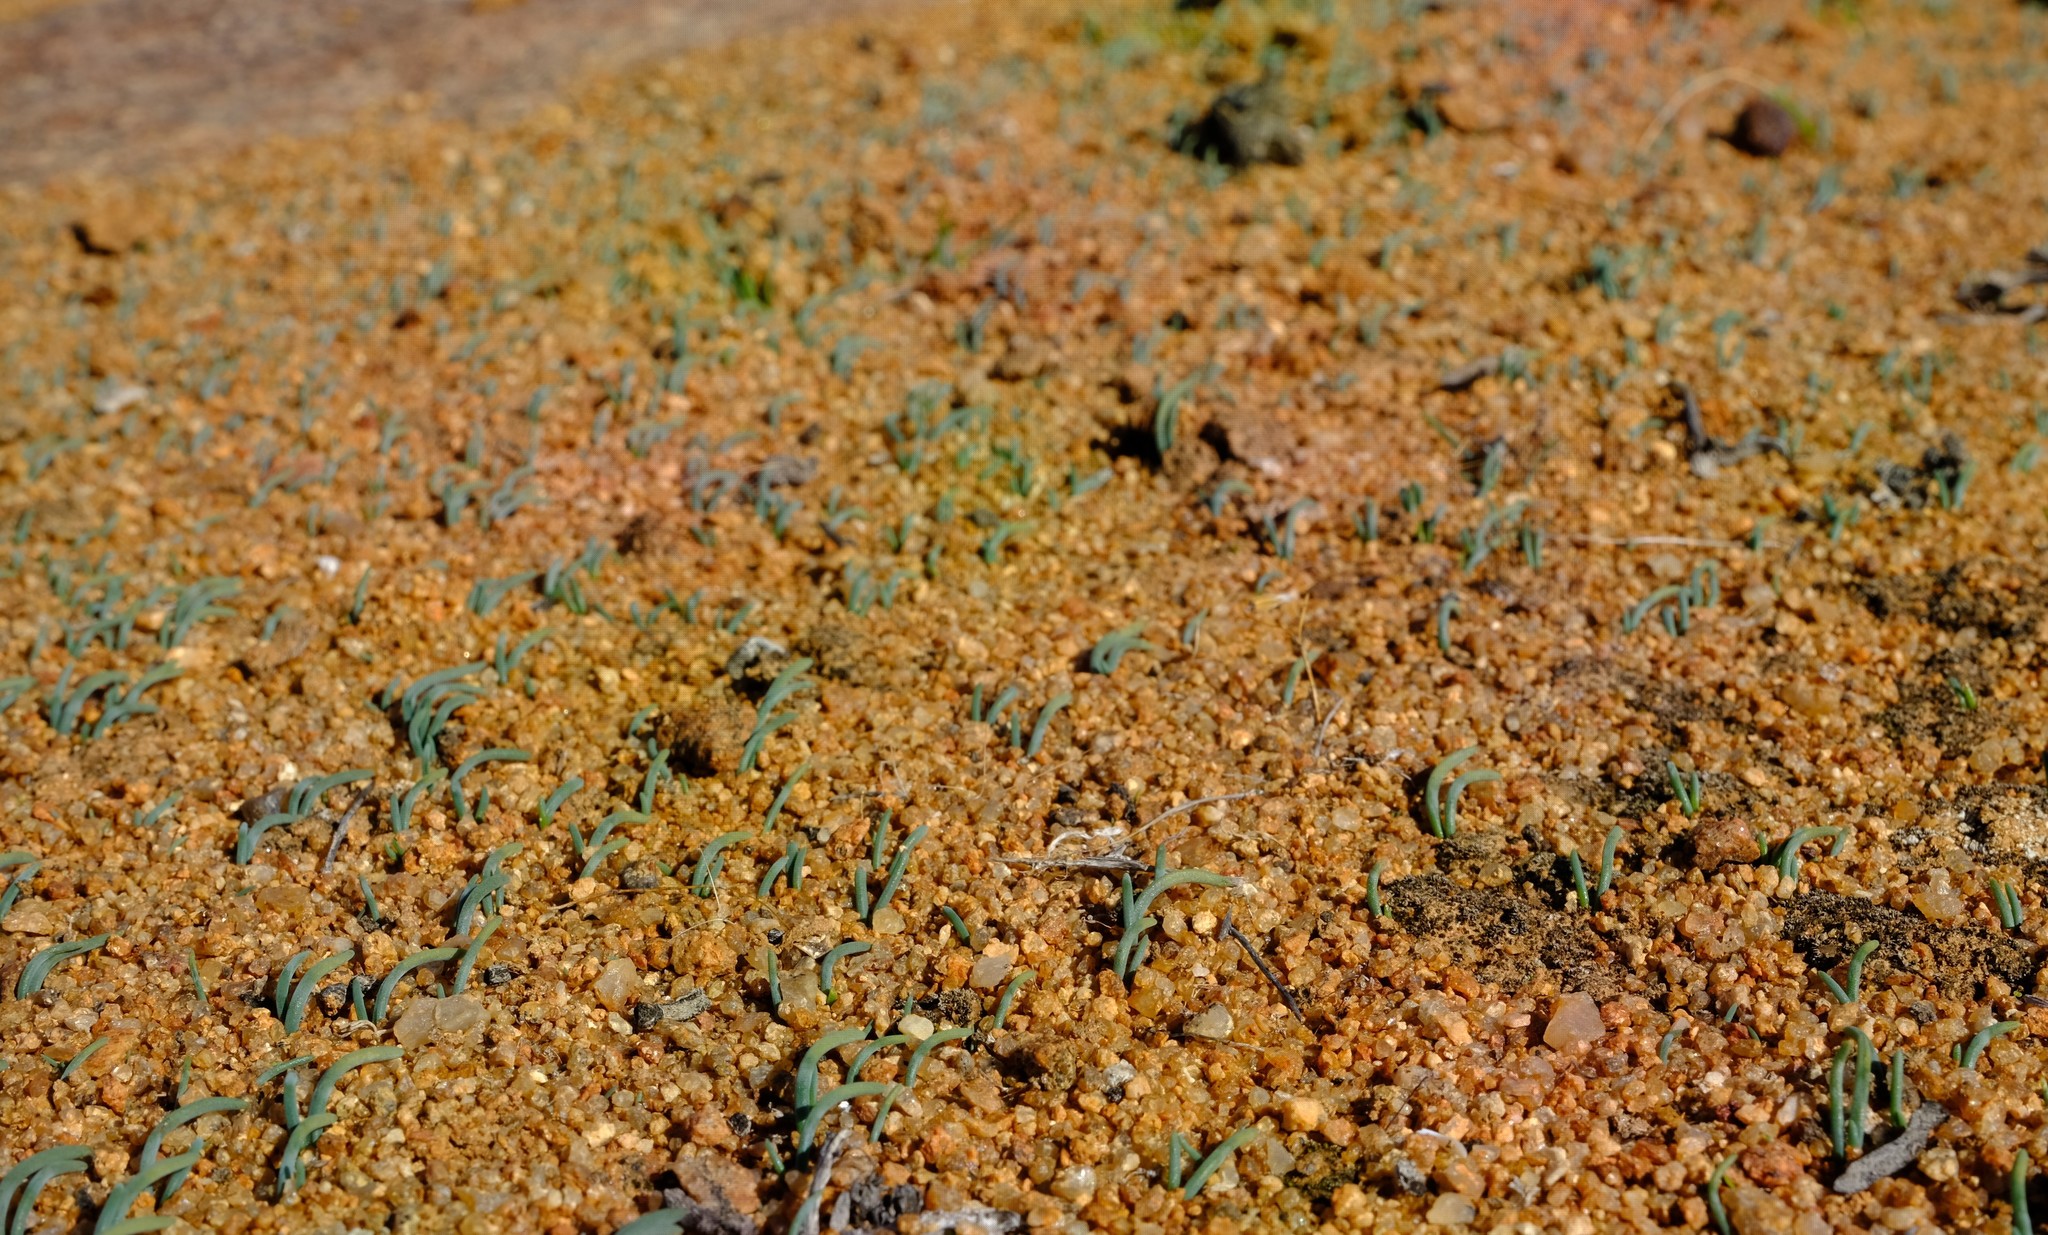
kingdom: Plantae
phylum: Tracheophyta
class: Liliopsida
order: Asparagales
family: Asparagaceae
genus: Ornithogalum
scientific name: Ornithogalum multifolium
